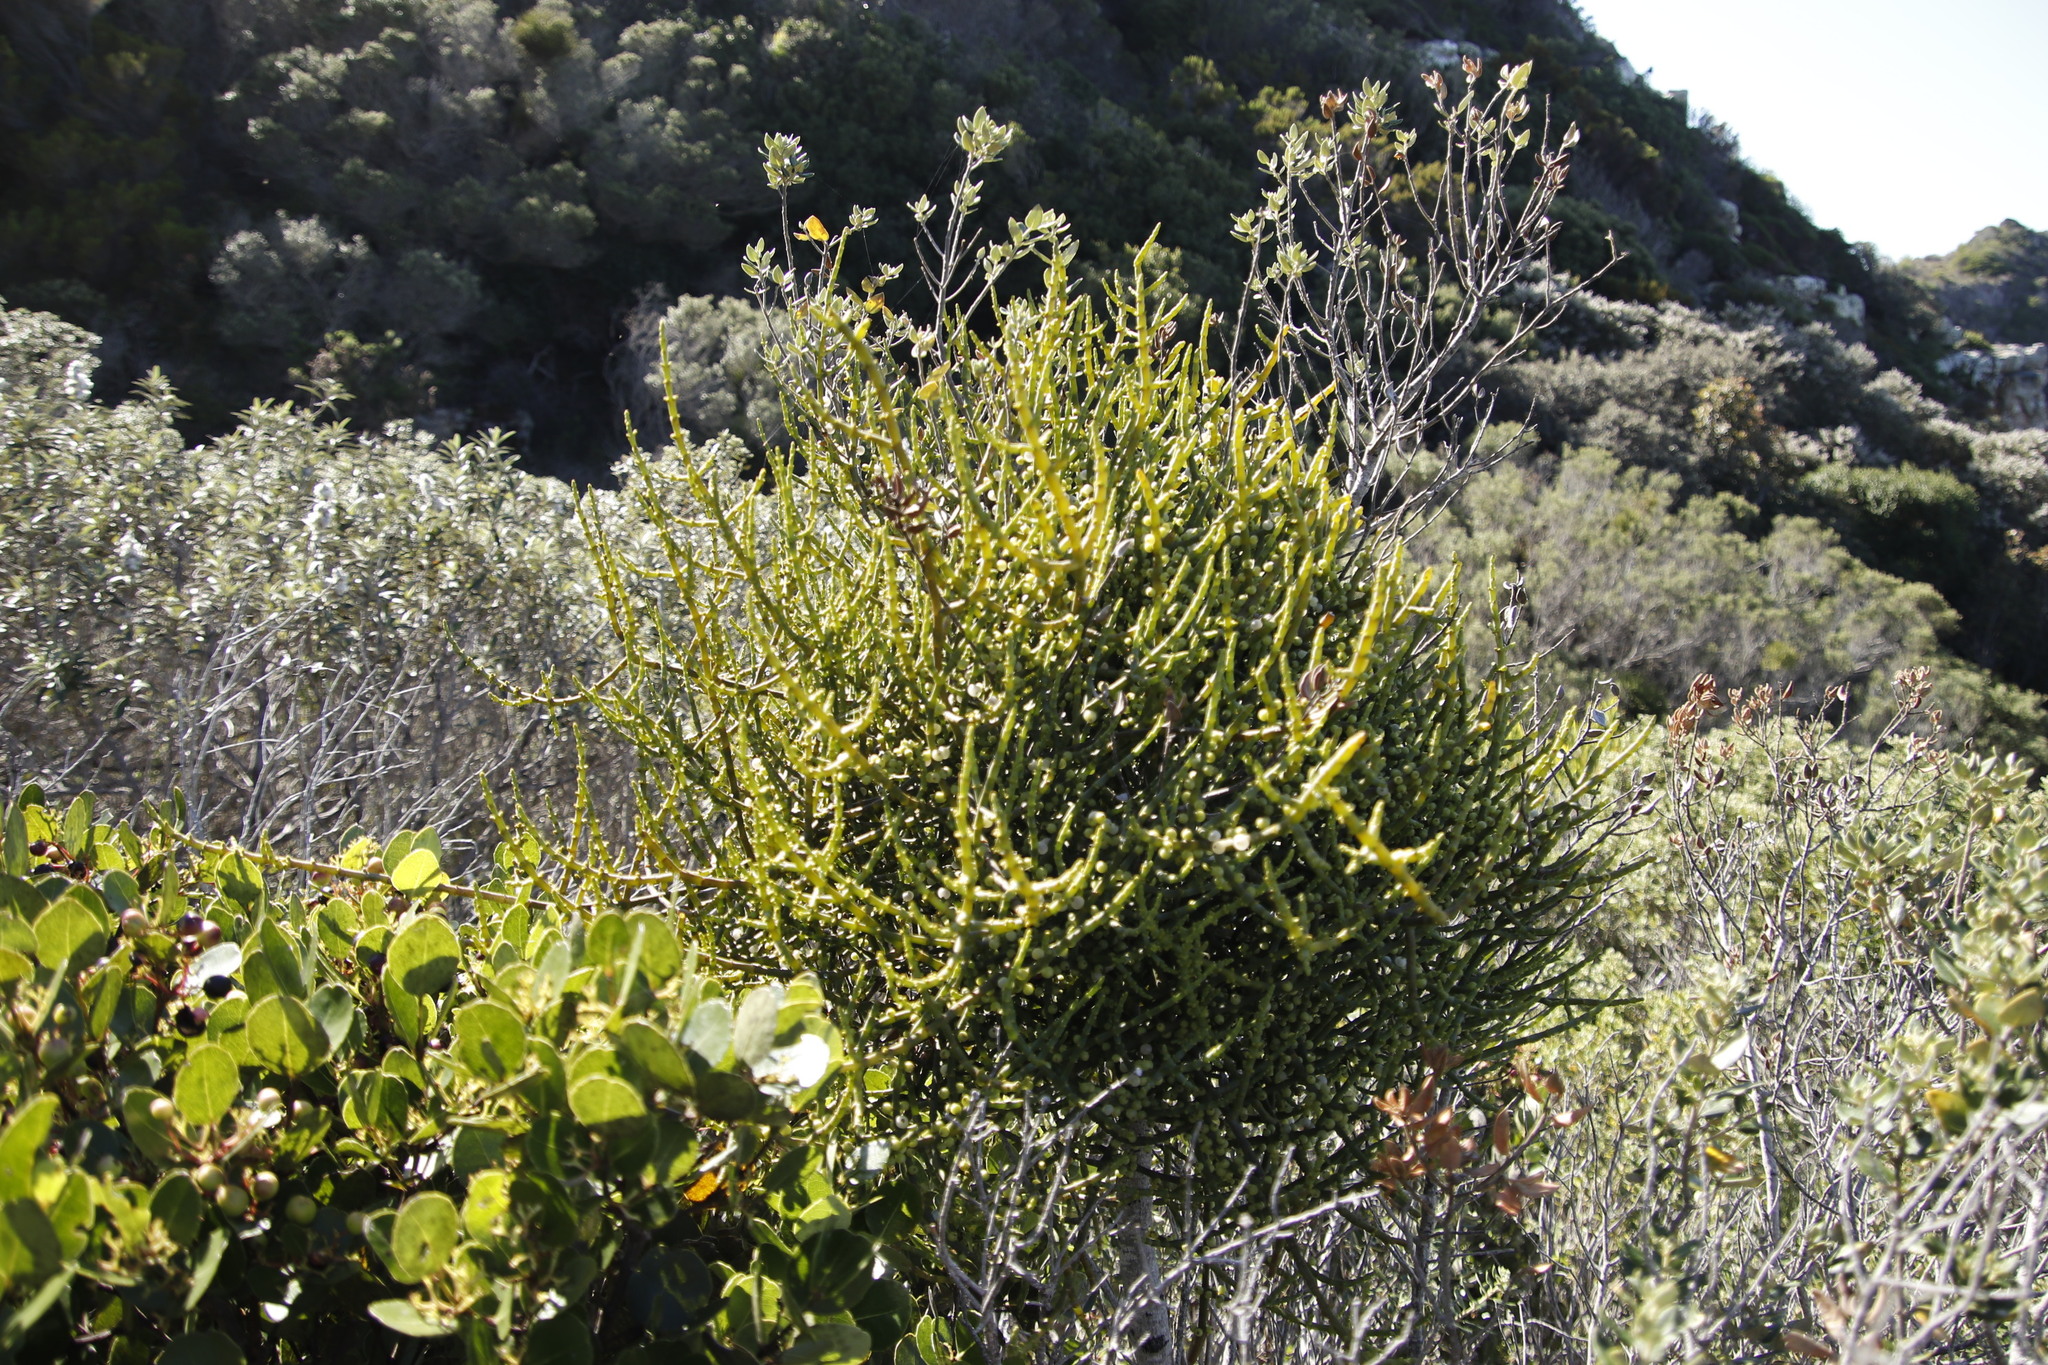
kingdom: Plantae
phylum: Tracheophyta
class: Magnoliopsida
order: Santalales
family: Viscaceae
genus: Viscum
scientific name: Viscum capense
